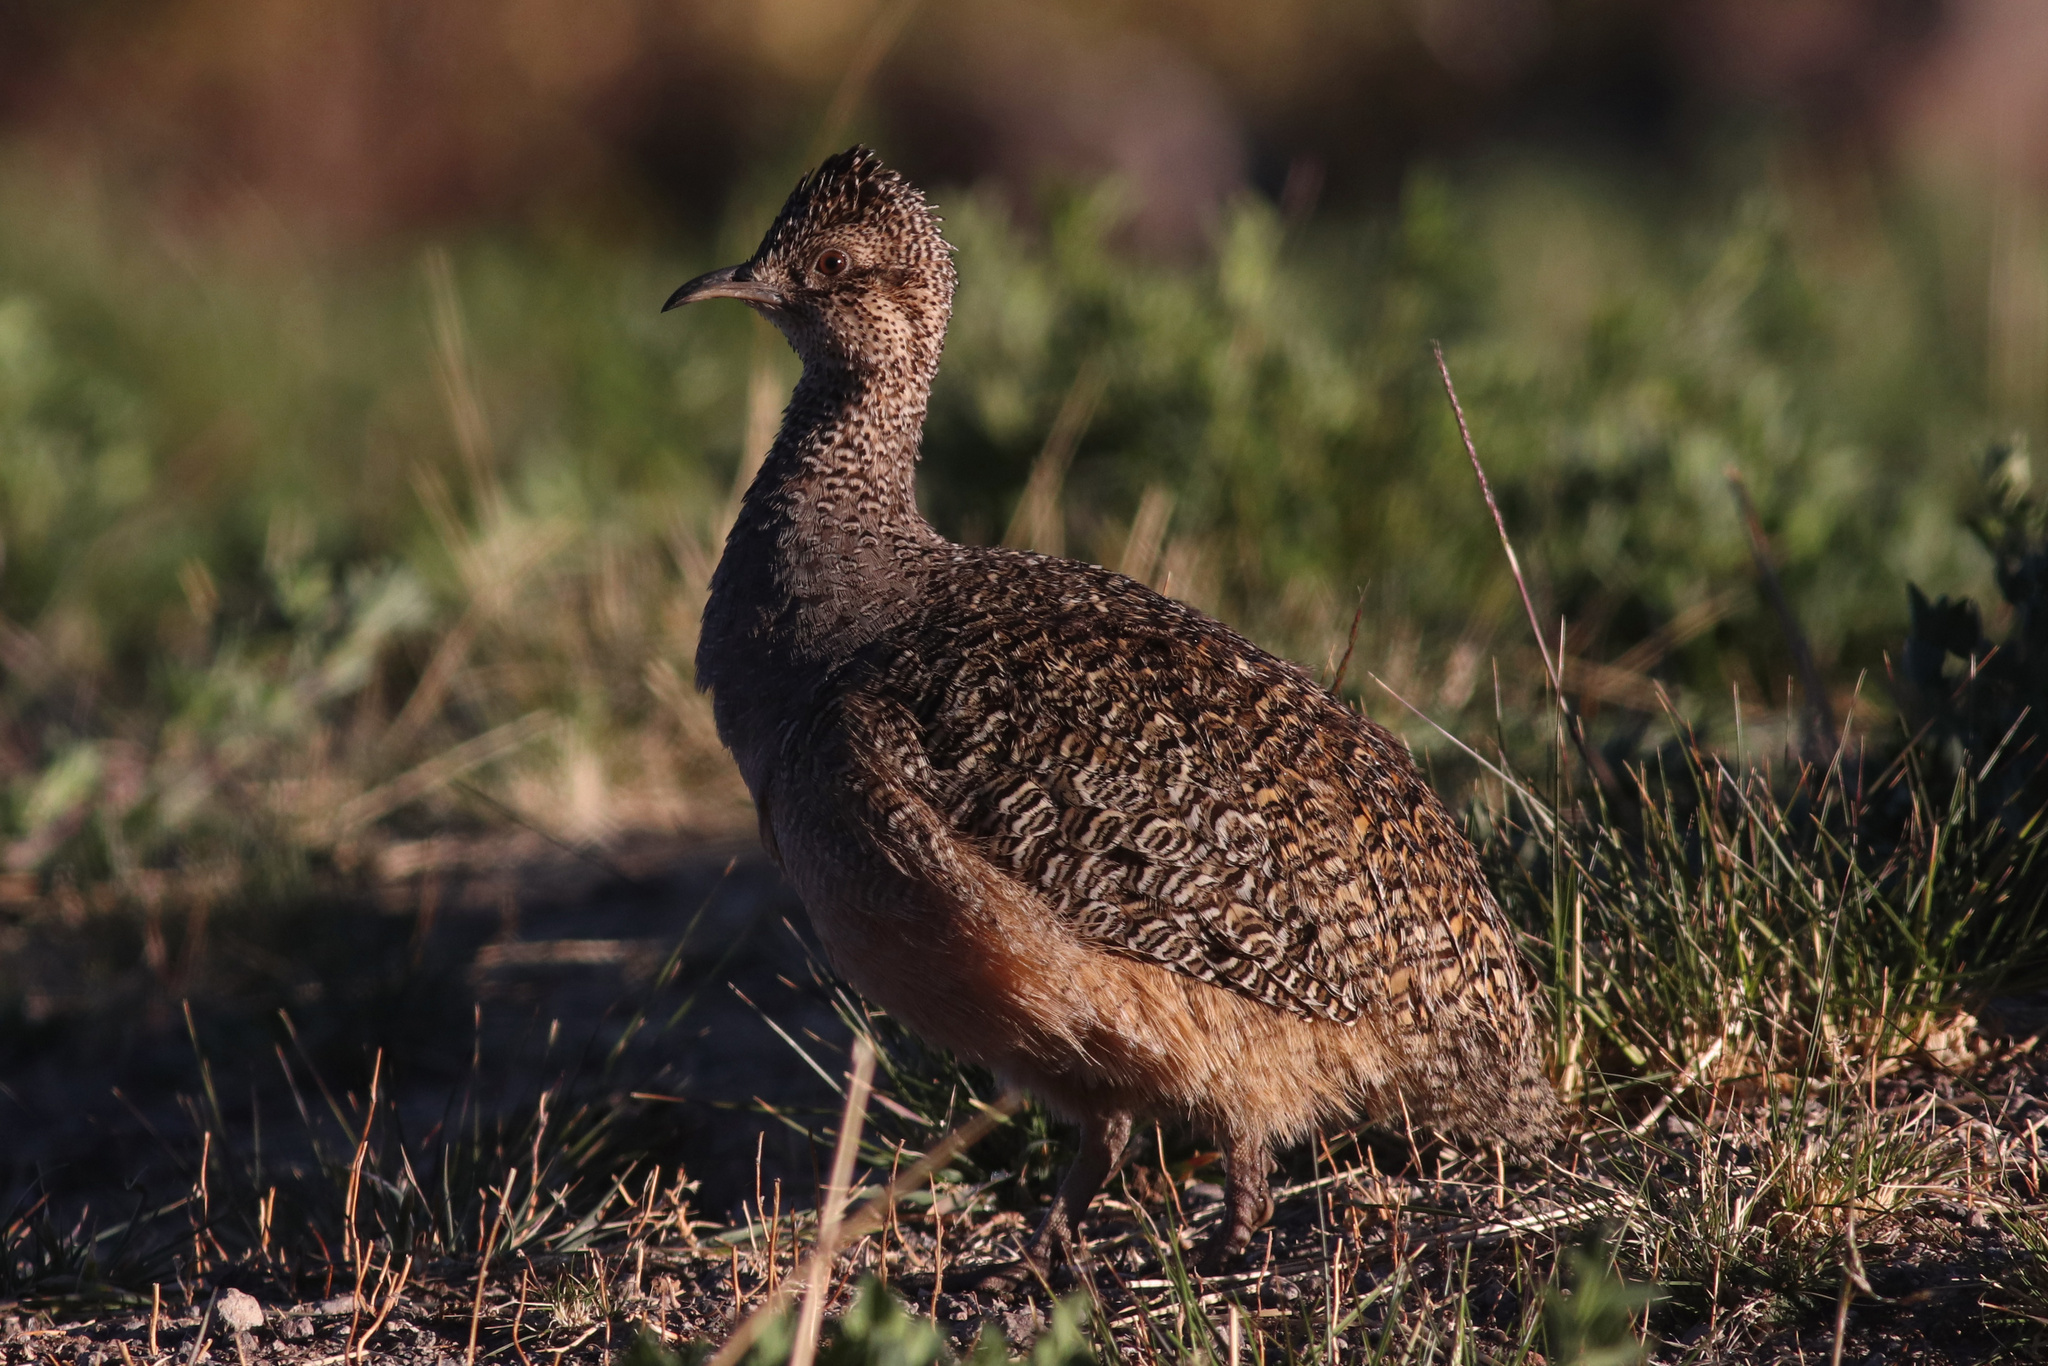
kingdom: Animalia
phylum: Chordata
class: Aves
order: Tinamiformes
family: Tinamidae
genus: Nothoprocta
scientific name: Nothoprocta ornata
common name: Ornate tinamou
